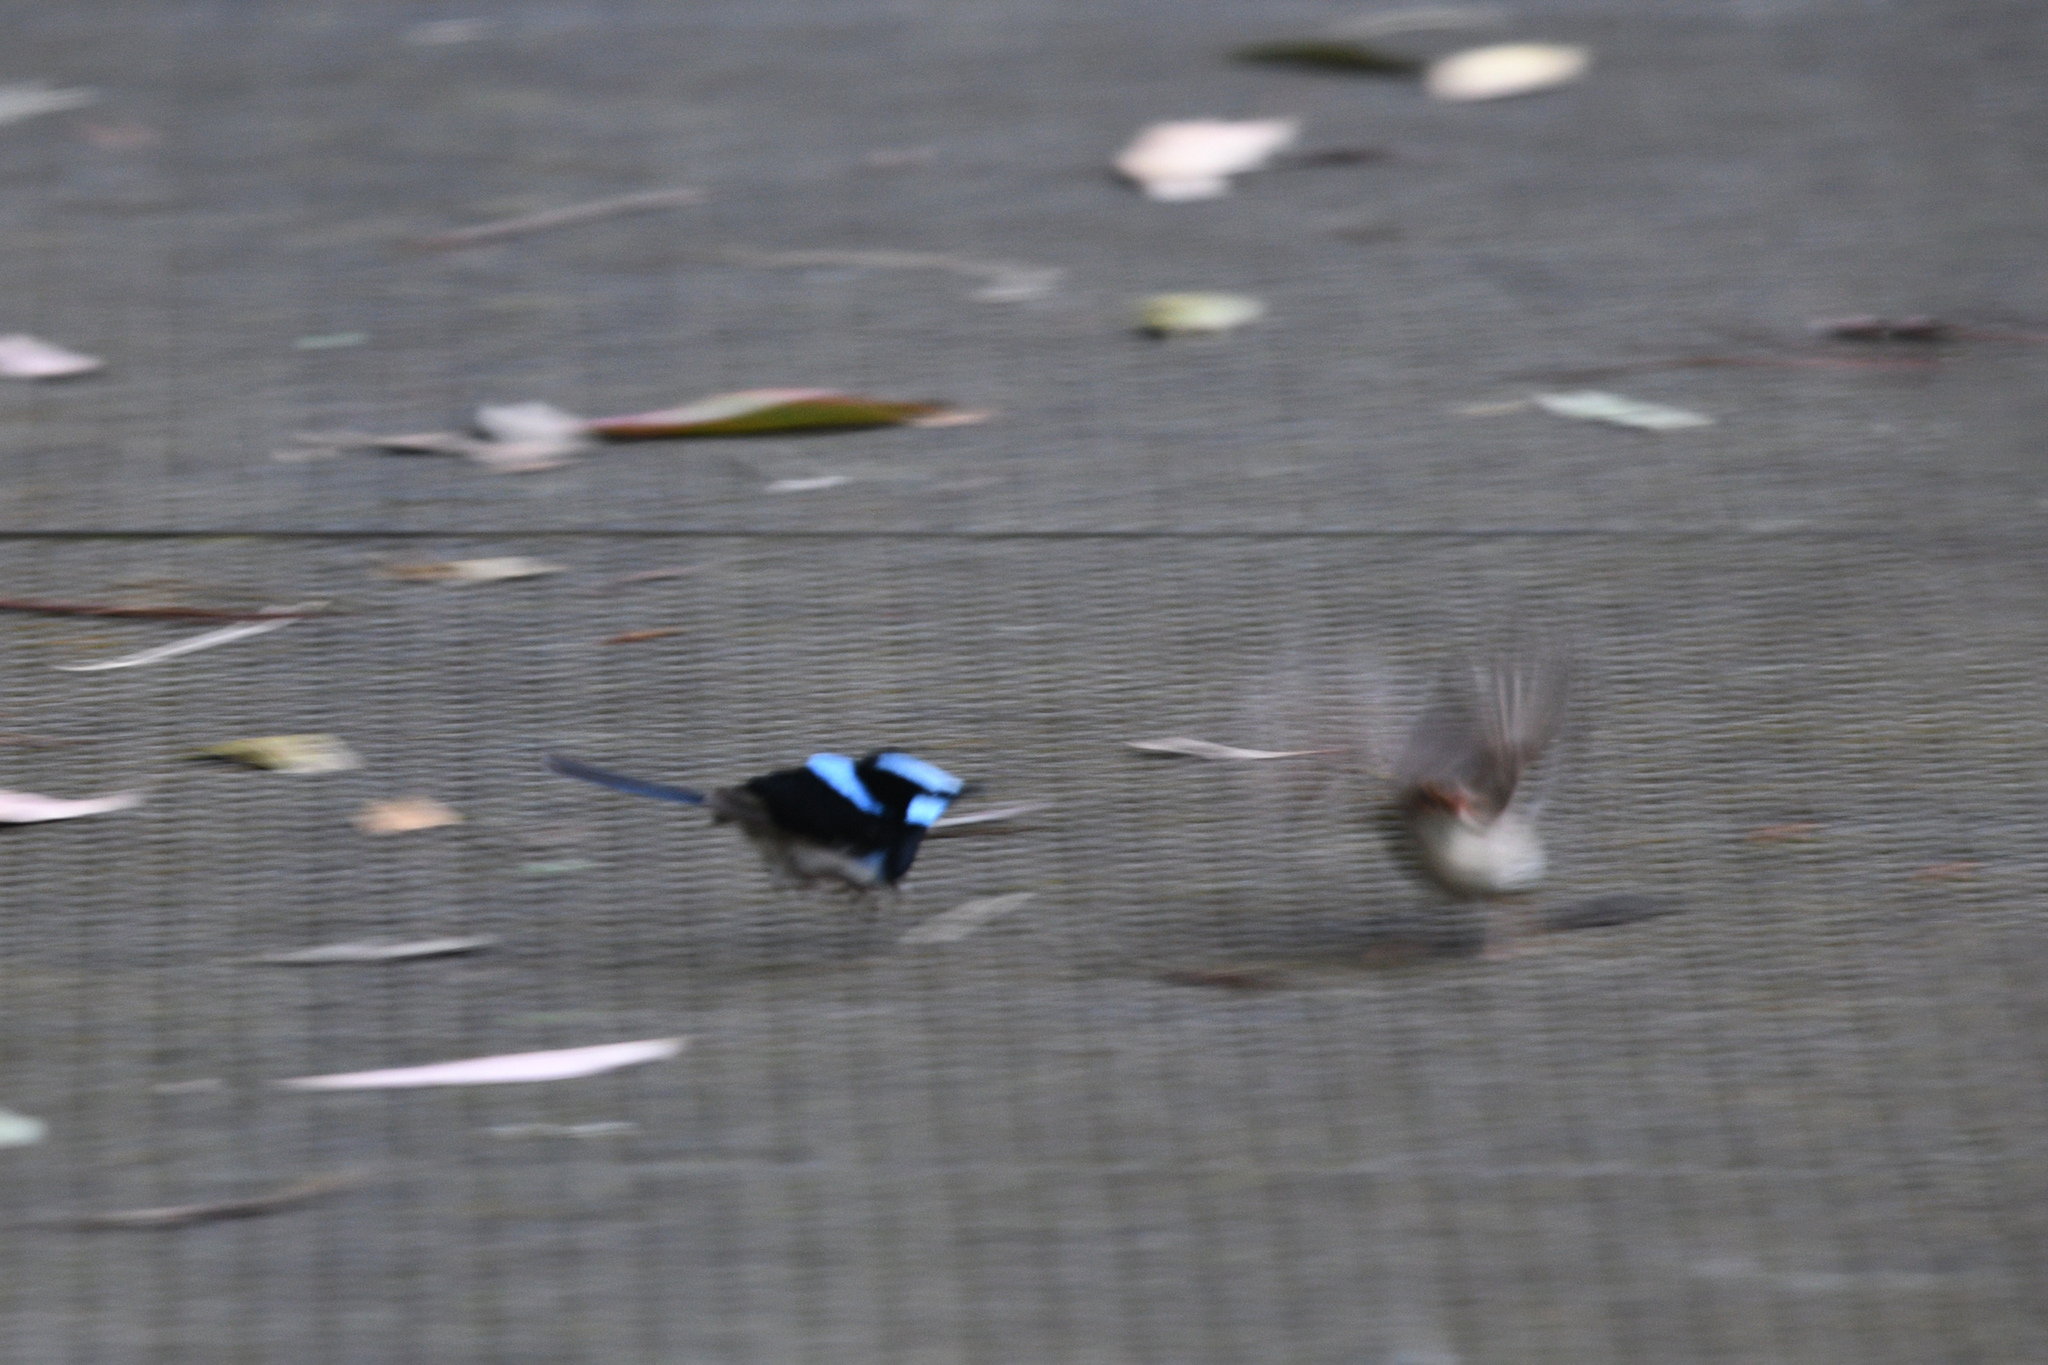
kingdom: Animalia
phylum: Chordata
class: Aves
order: Passeriformes
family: Maluridae
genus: Malurus
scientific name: Malurus cyaneus
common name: Superb fairywren
